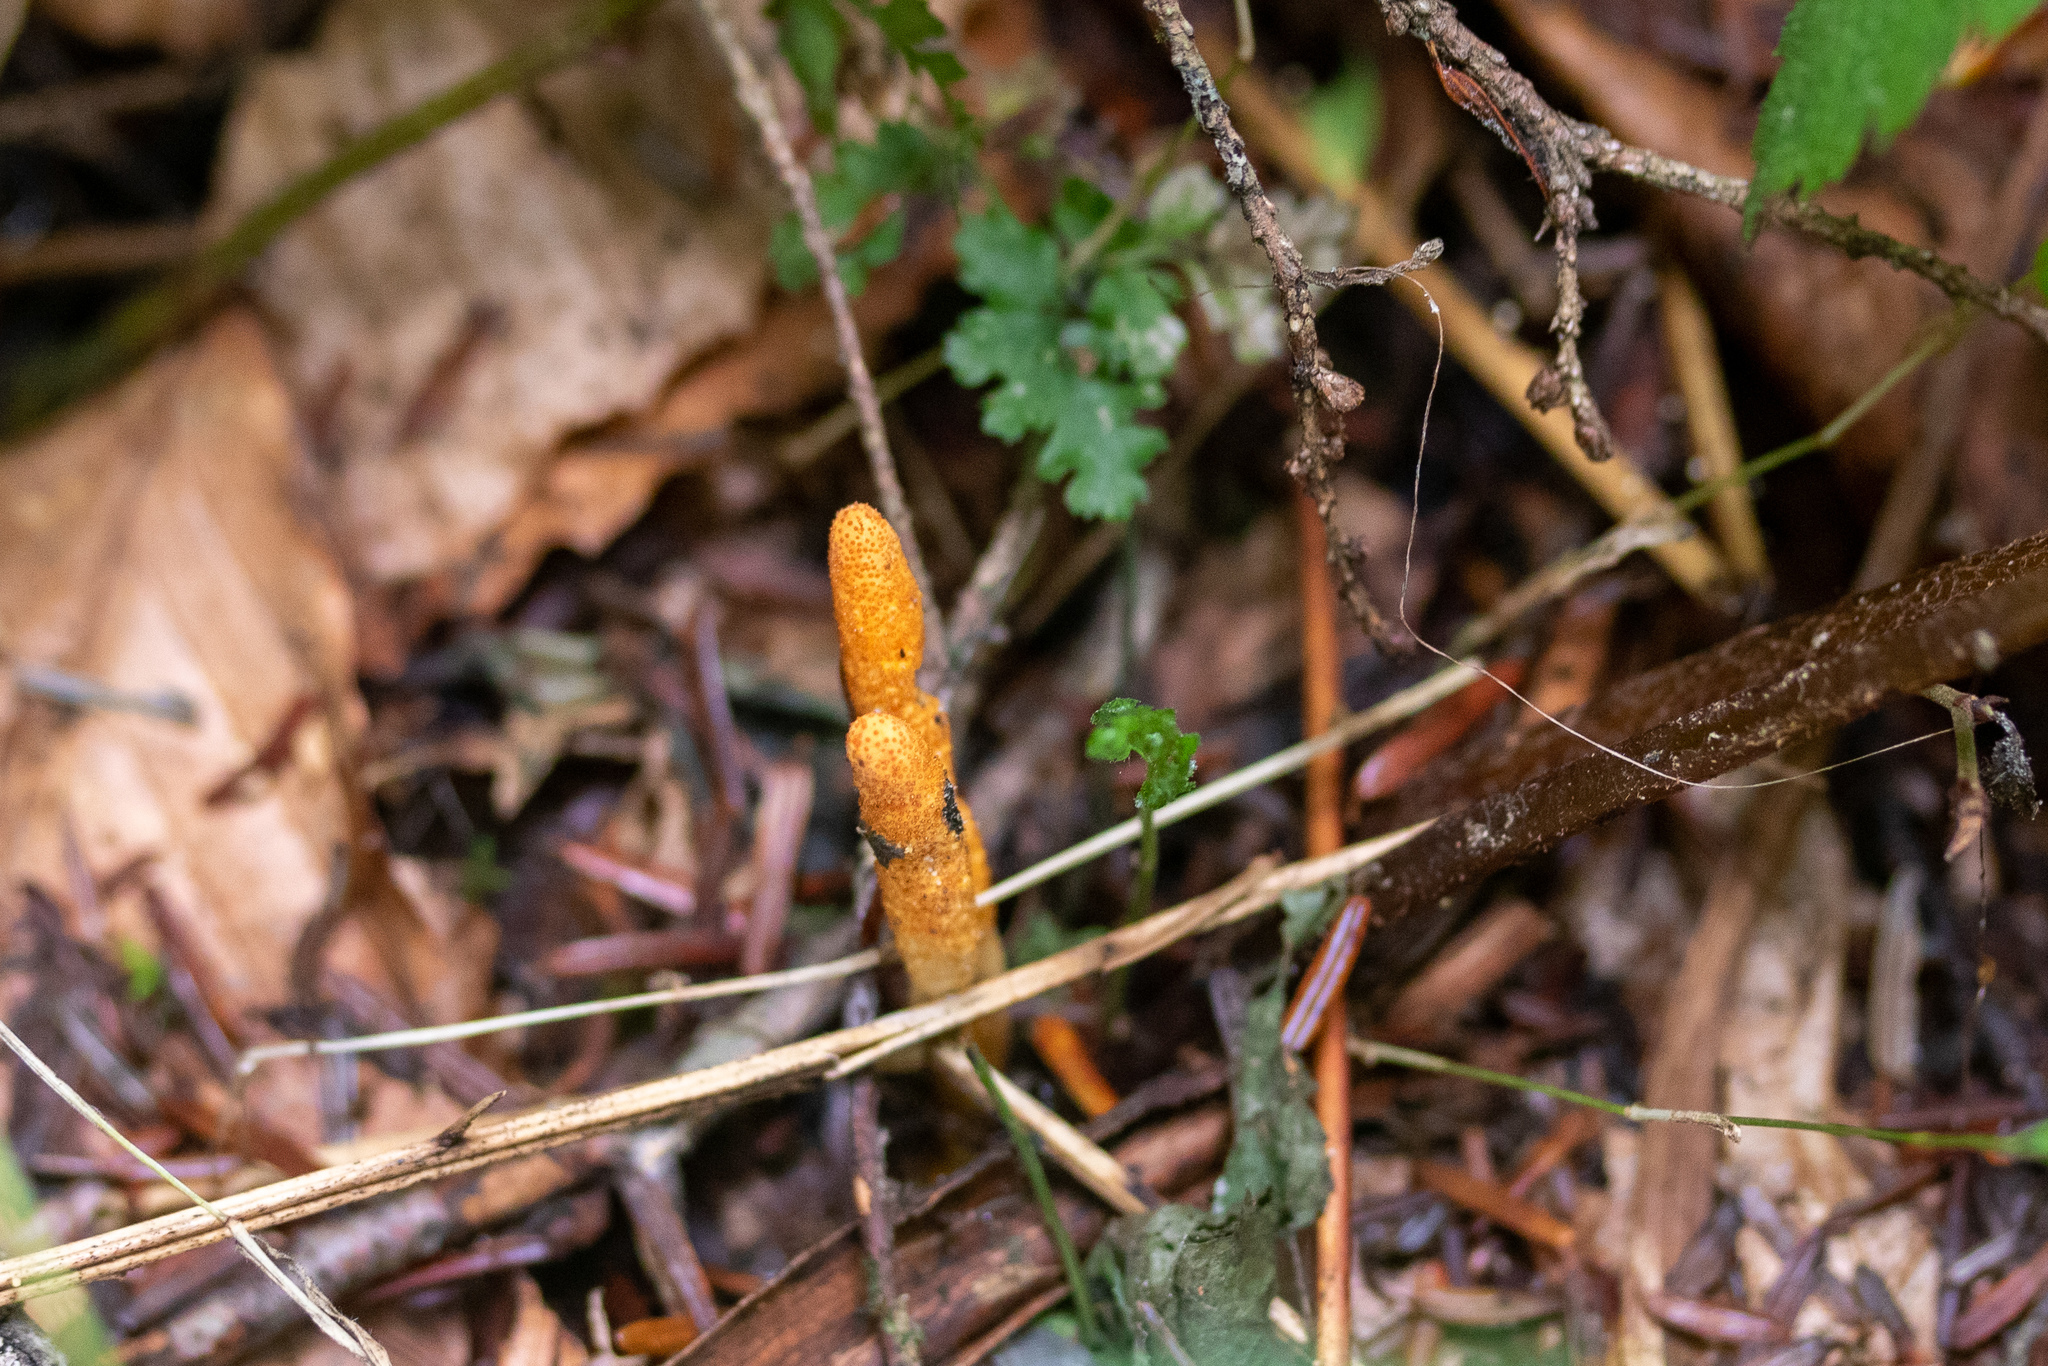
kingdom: Fungi
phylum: Ascomycota
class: Sordariomycetes
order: Hypocreales
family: Cordycipitaceae
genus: Cordyceps
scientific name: Cordyceps militaris
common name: Scarlet caterpillar fungus
